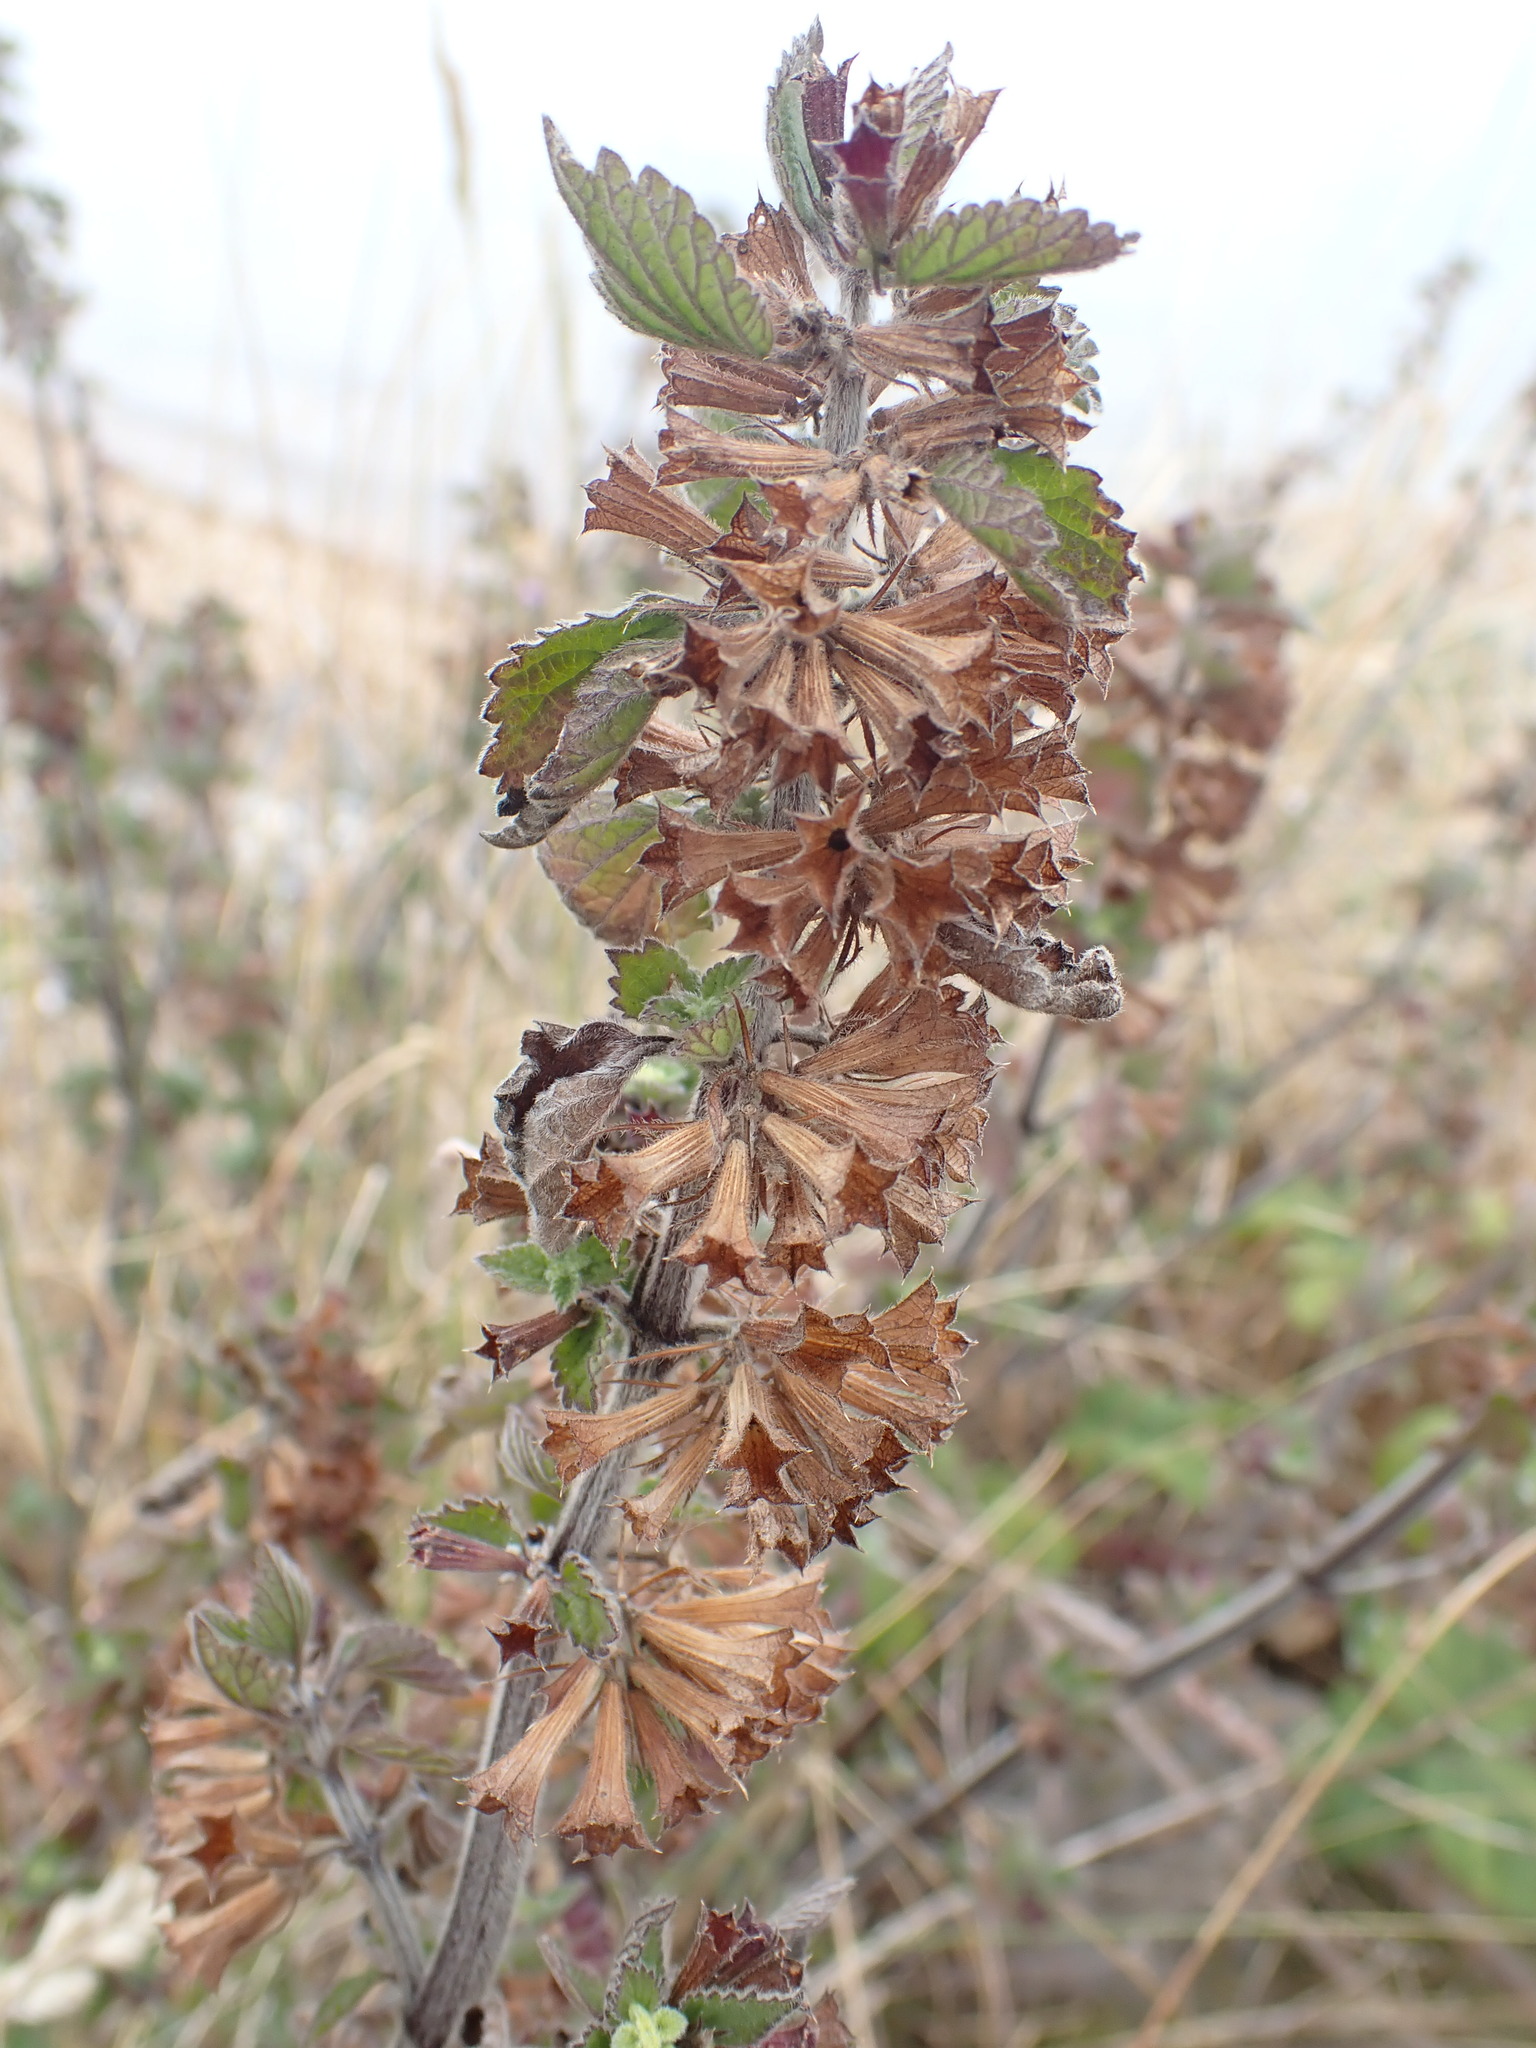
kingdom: Plantae
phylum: Tracheophyta
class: Magnoliopsida
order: Lamiales
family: Lamiaceae
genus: Ballota
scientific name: Ballota nigra
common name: Black horehound
